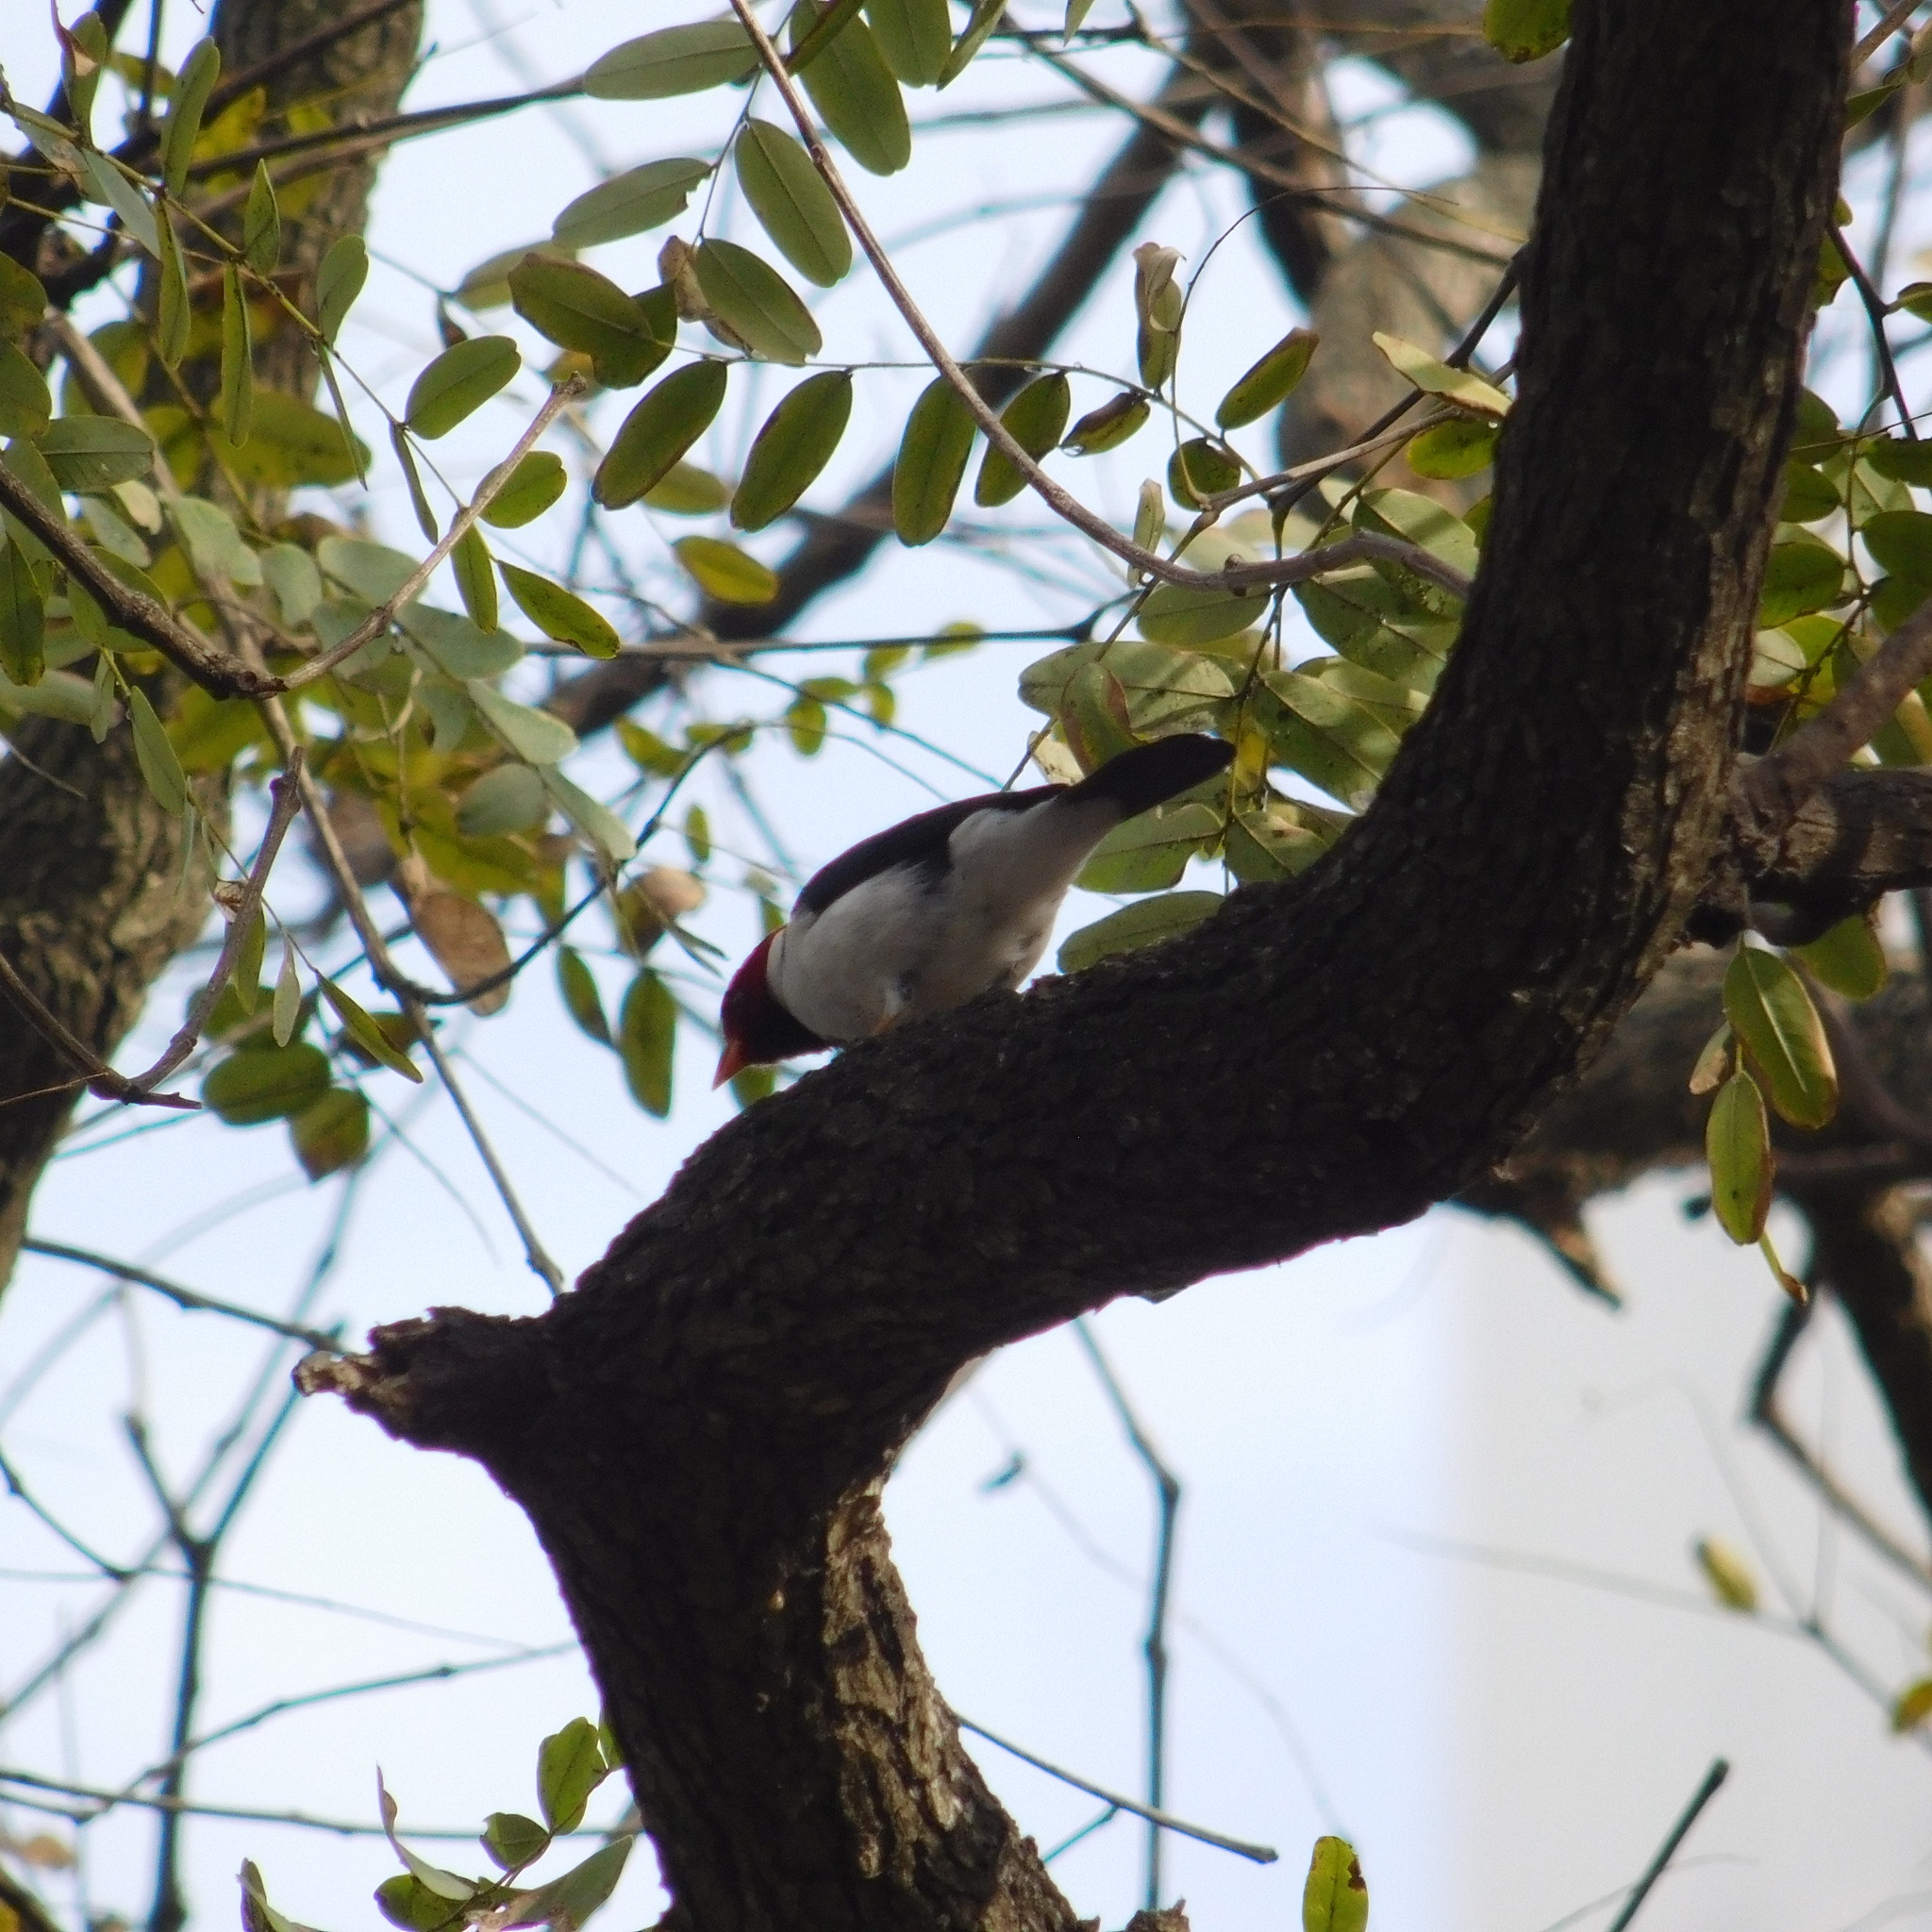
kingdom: Animalia
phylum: Chordata
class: Aves
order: Passeriformes
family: Thraupidae
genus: Paroaria
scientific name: Paroaria capitata
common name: Yellow-billed cardinal
